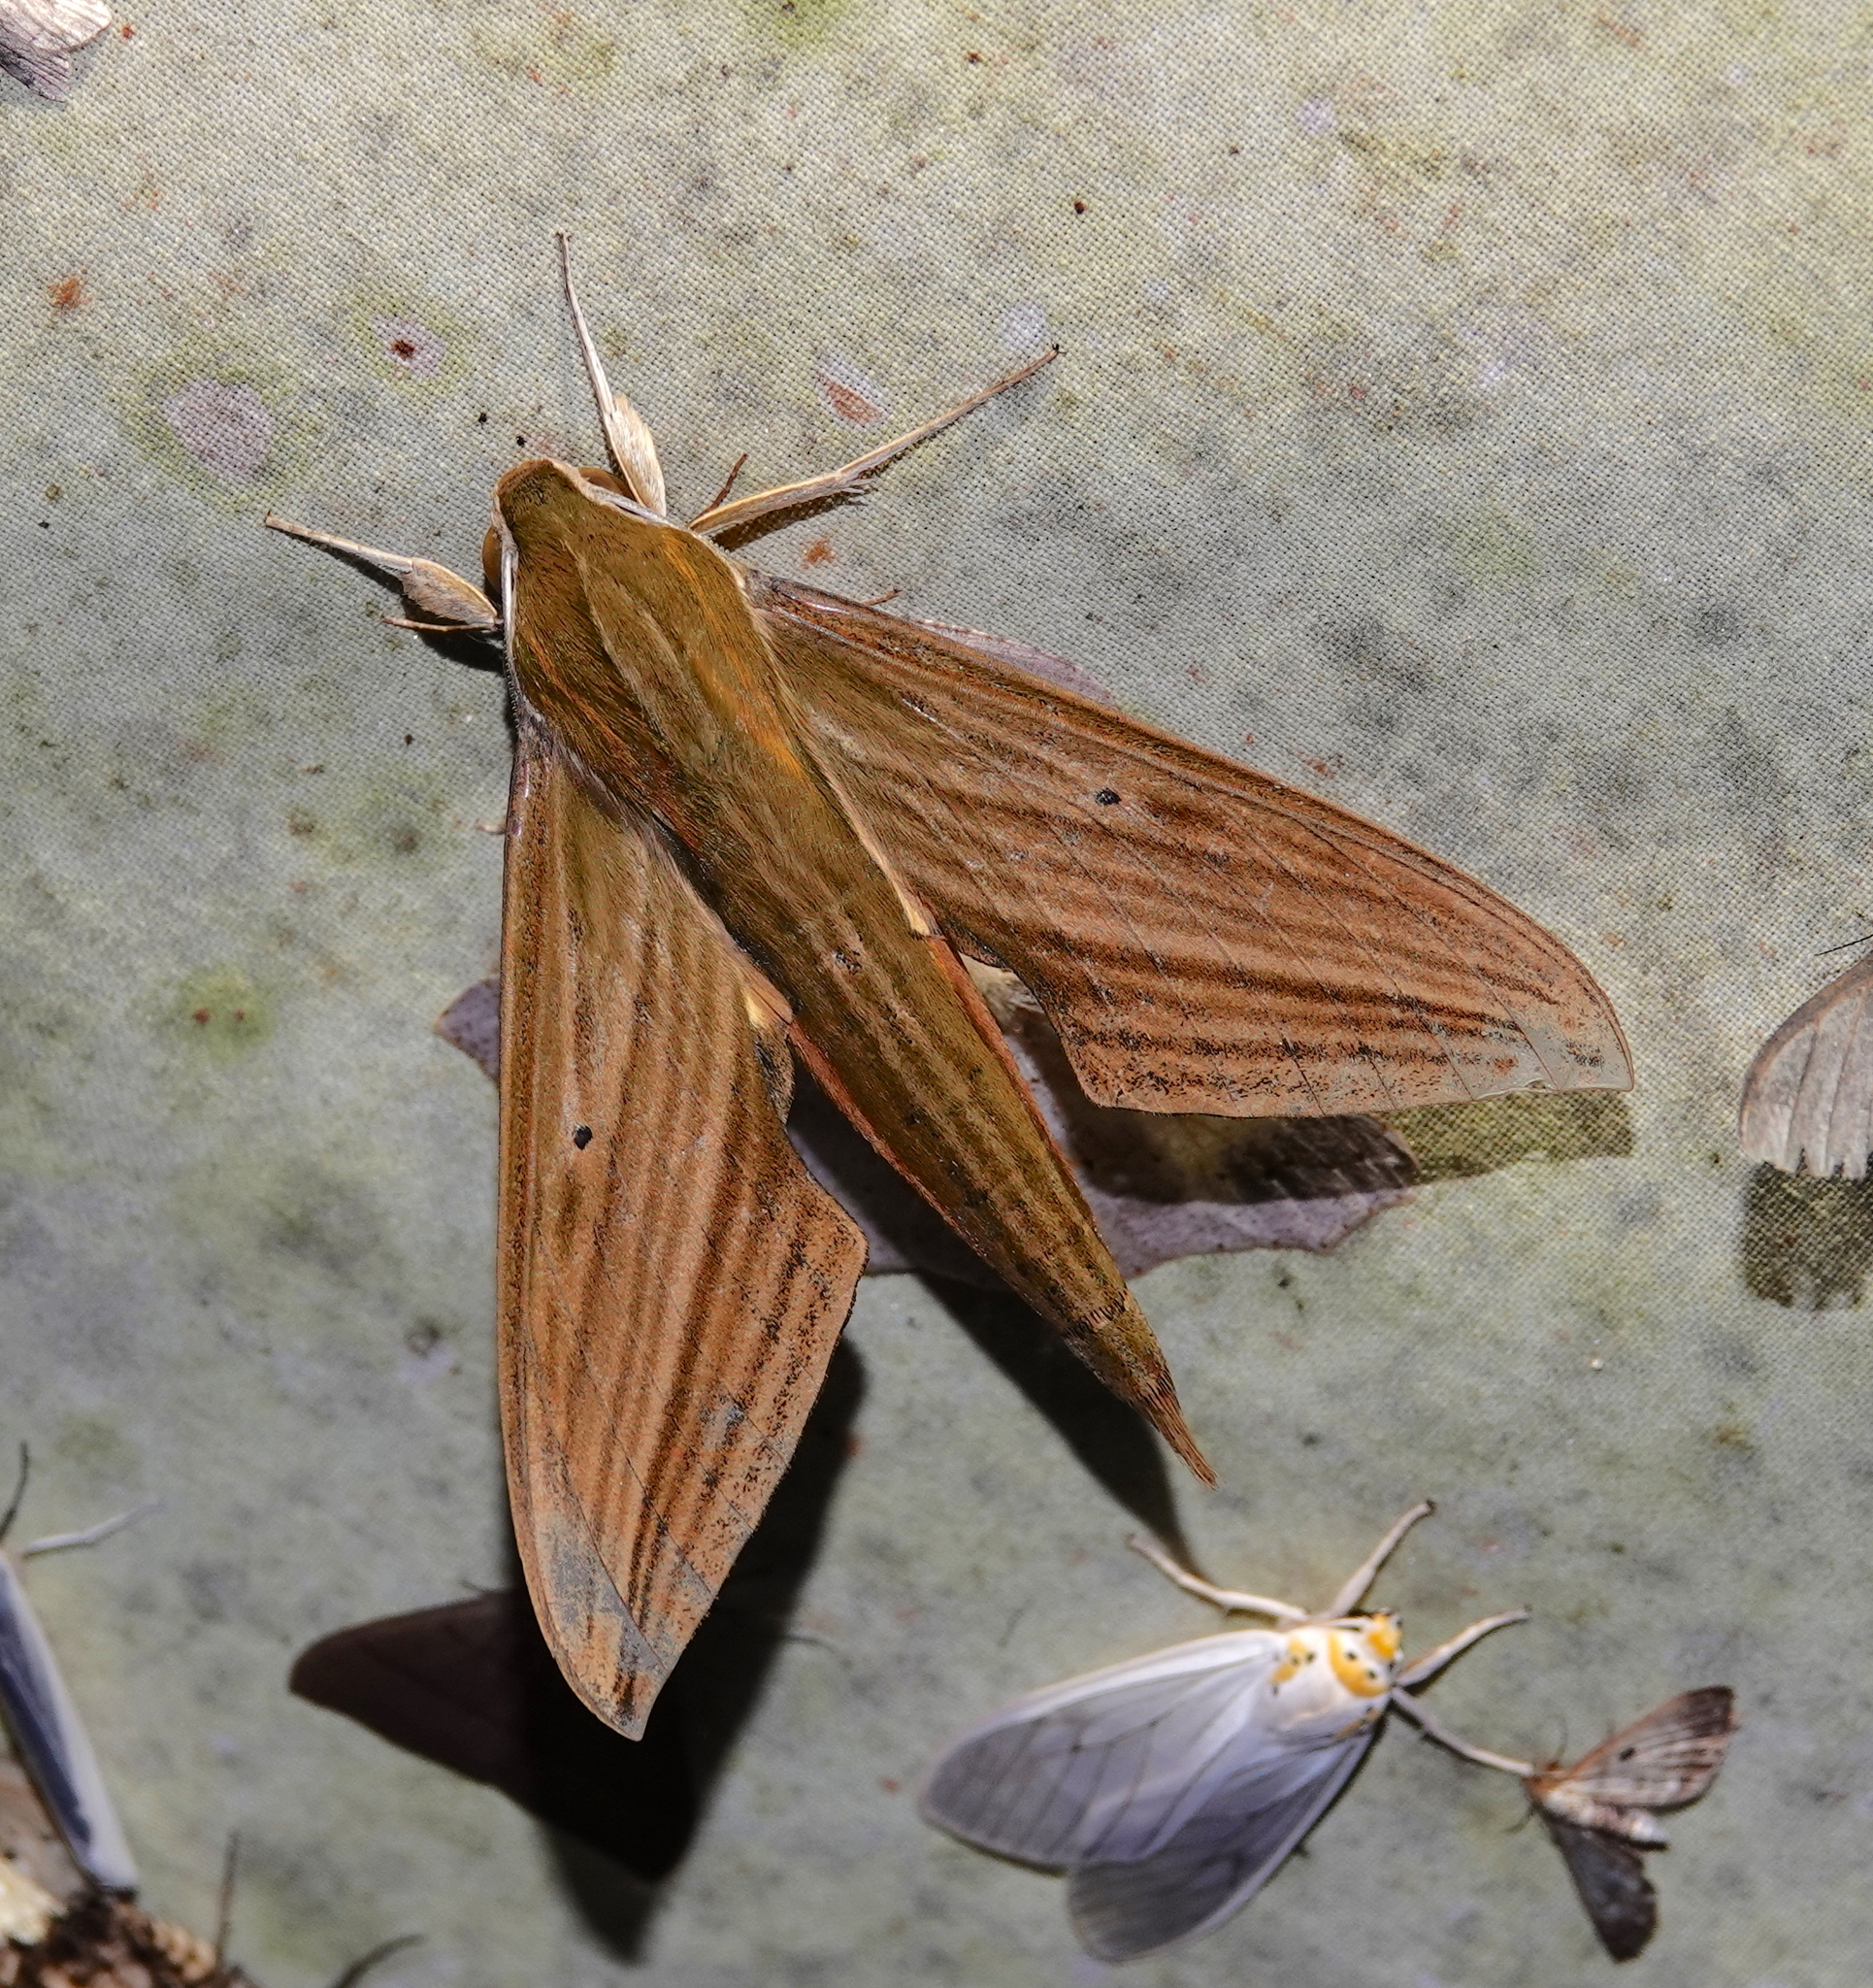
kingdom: Animalia
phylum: Arthropoda
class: Insecta
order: Lepidoptera
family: Sphingidae
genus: Xylophanes
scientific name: Xylophanes crotonis
